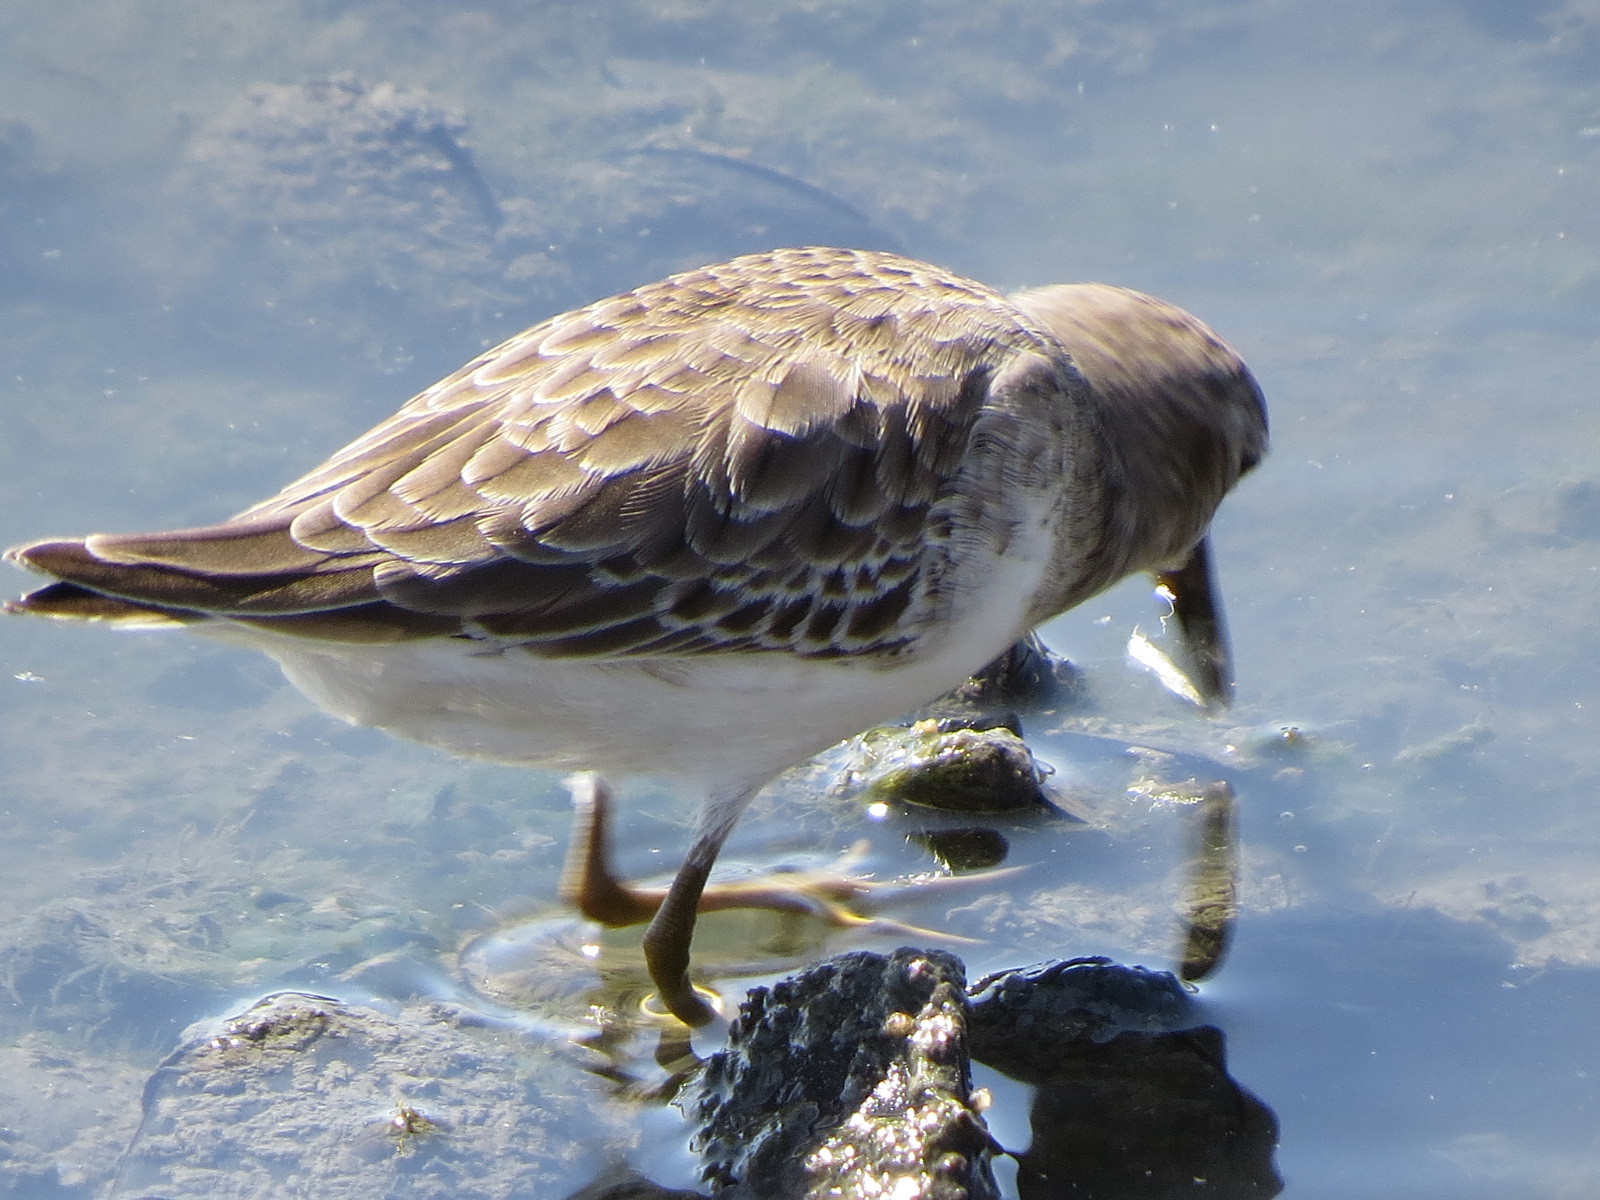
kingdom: Animalia
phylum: Chordata
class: Aves
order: Charadriiformes
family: Scolopacidae
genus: Calidris
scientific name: Calidris minutilla
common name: Least sandpiper
